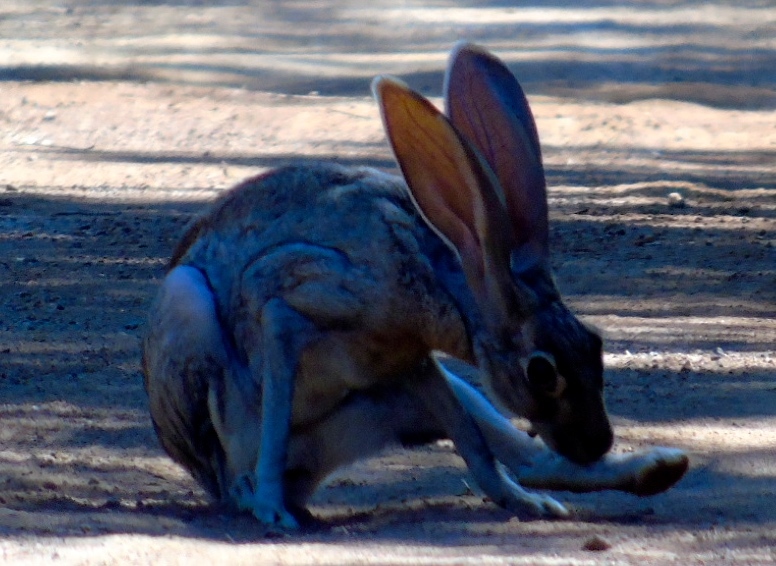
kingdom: Animalia
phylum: Chordata
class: Mammalia
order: Lagomorpha
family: Leporidae
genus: Lepus
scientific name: Lepus alleni
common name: Antelope jackrabbit
